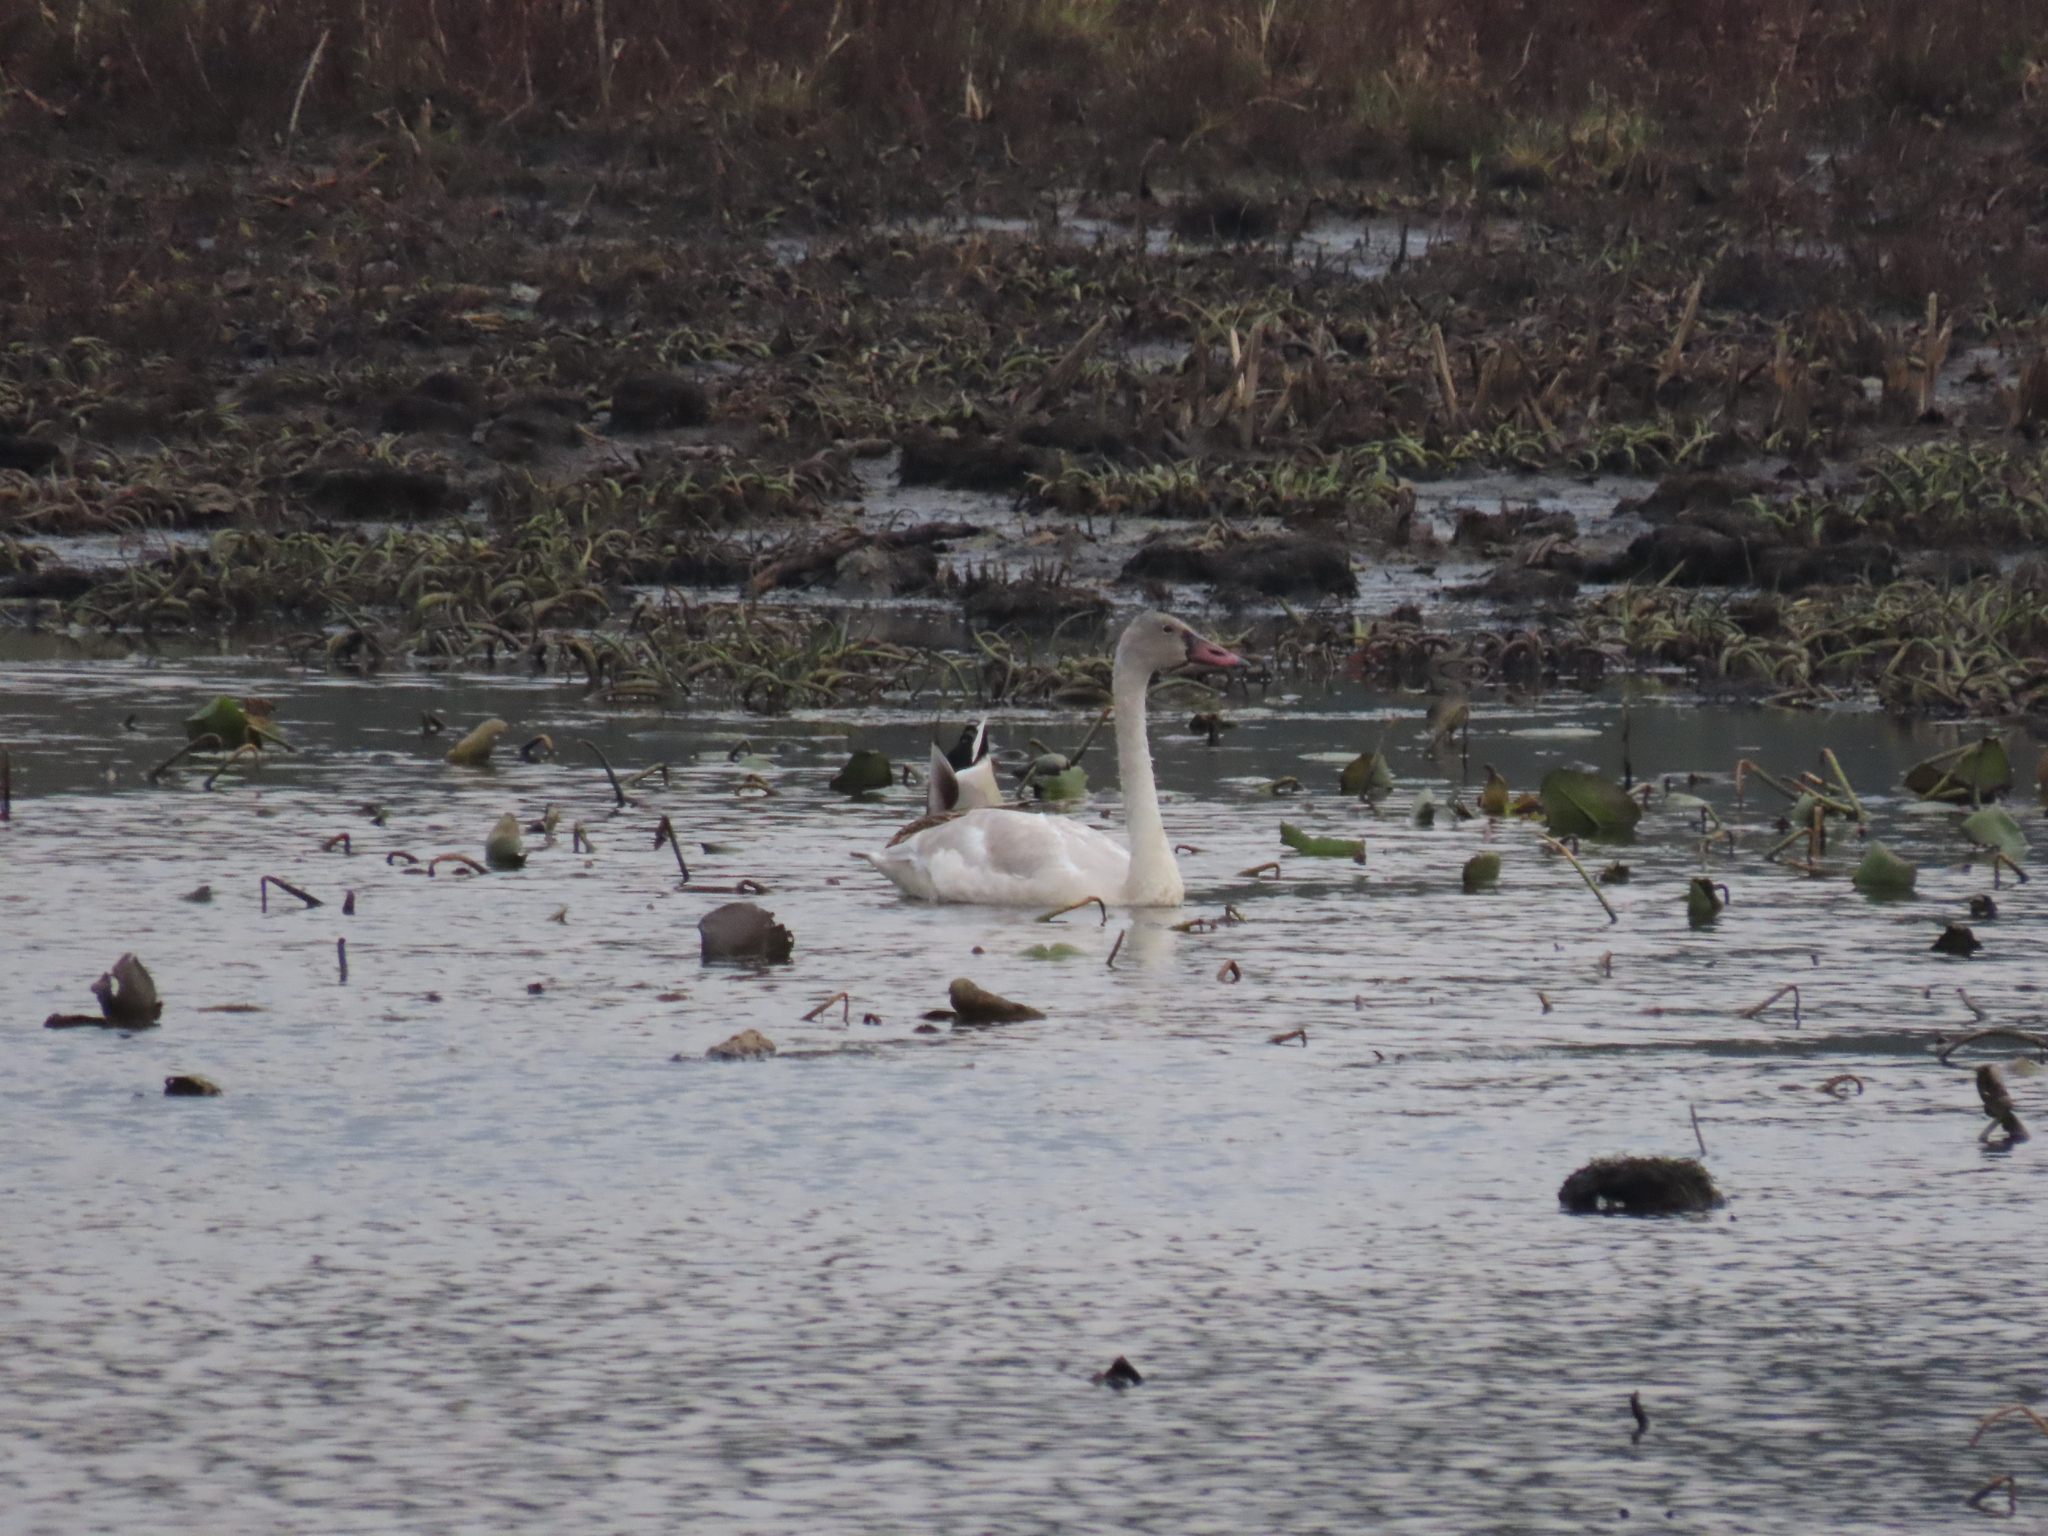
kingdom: Animalia
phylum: Chordata
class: Aves
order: Anseriformes
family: Anatidae
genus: Cygnus
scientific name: Cygnus columbianus
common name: Tundra swan
